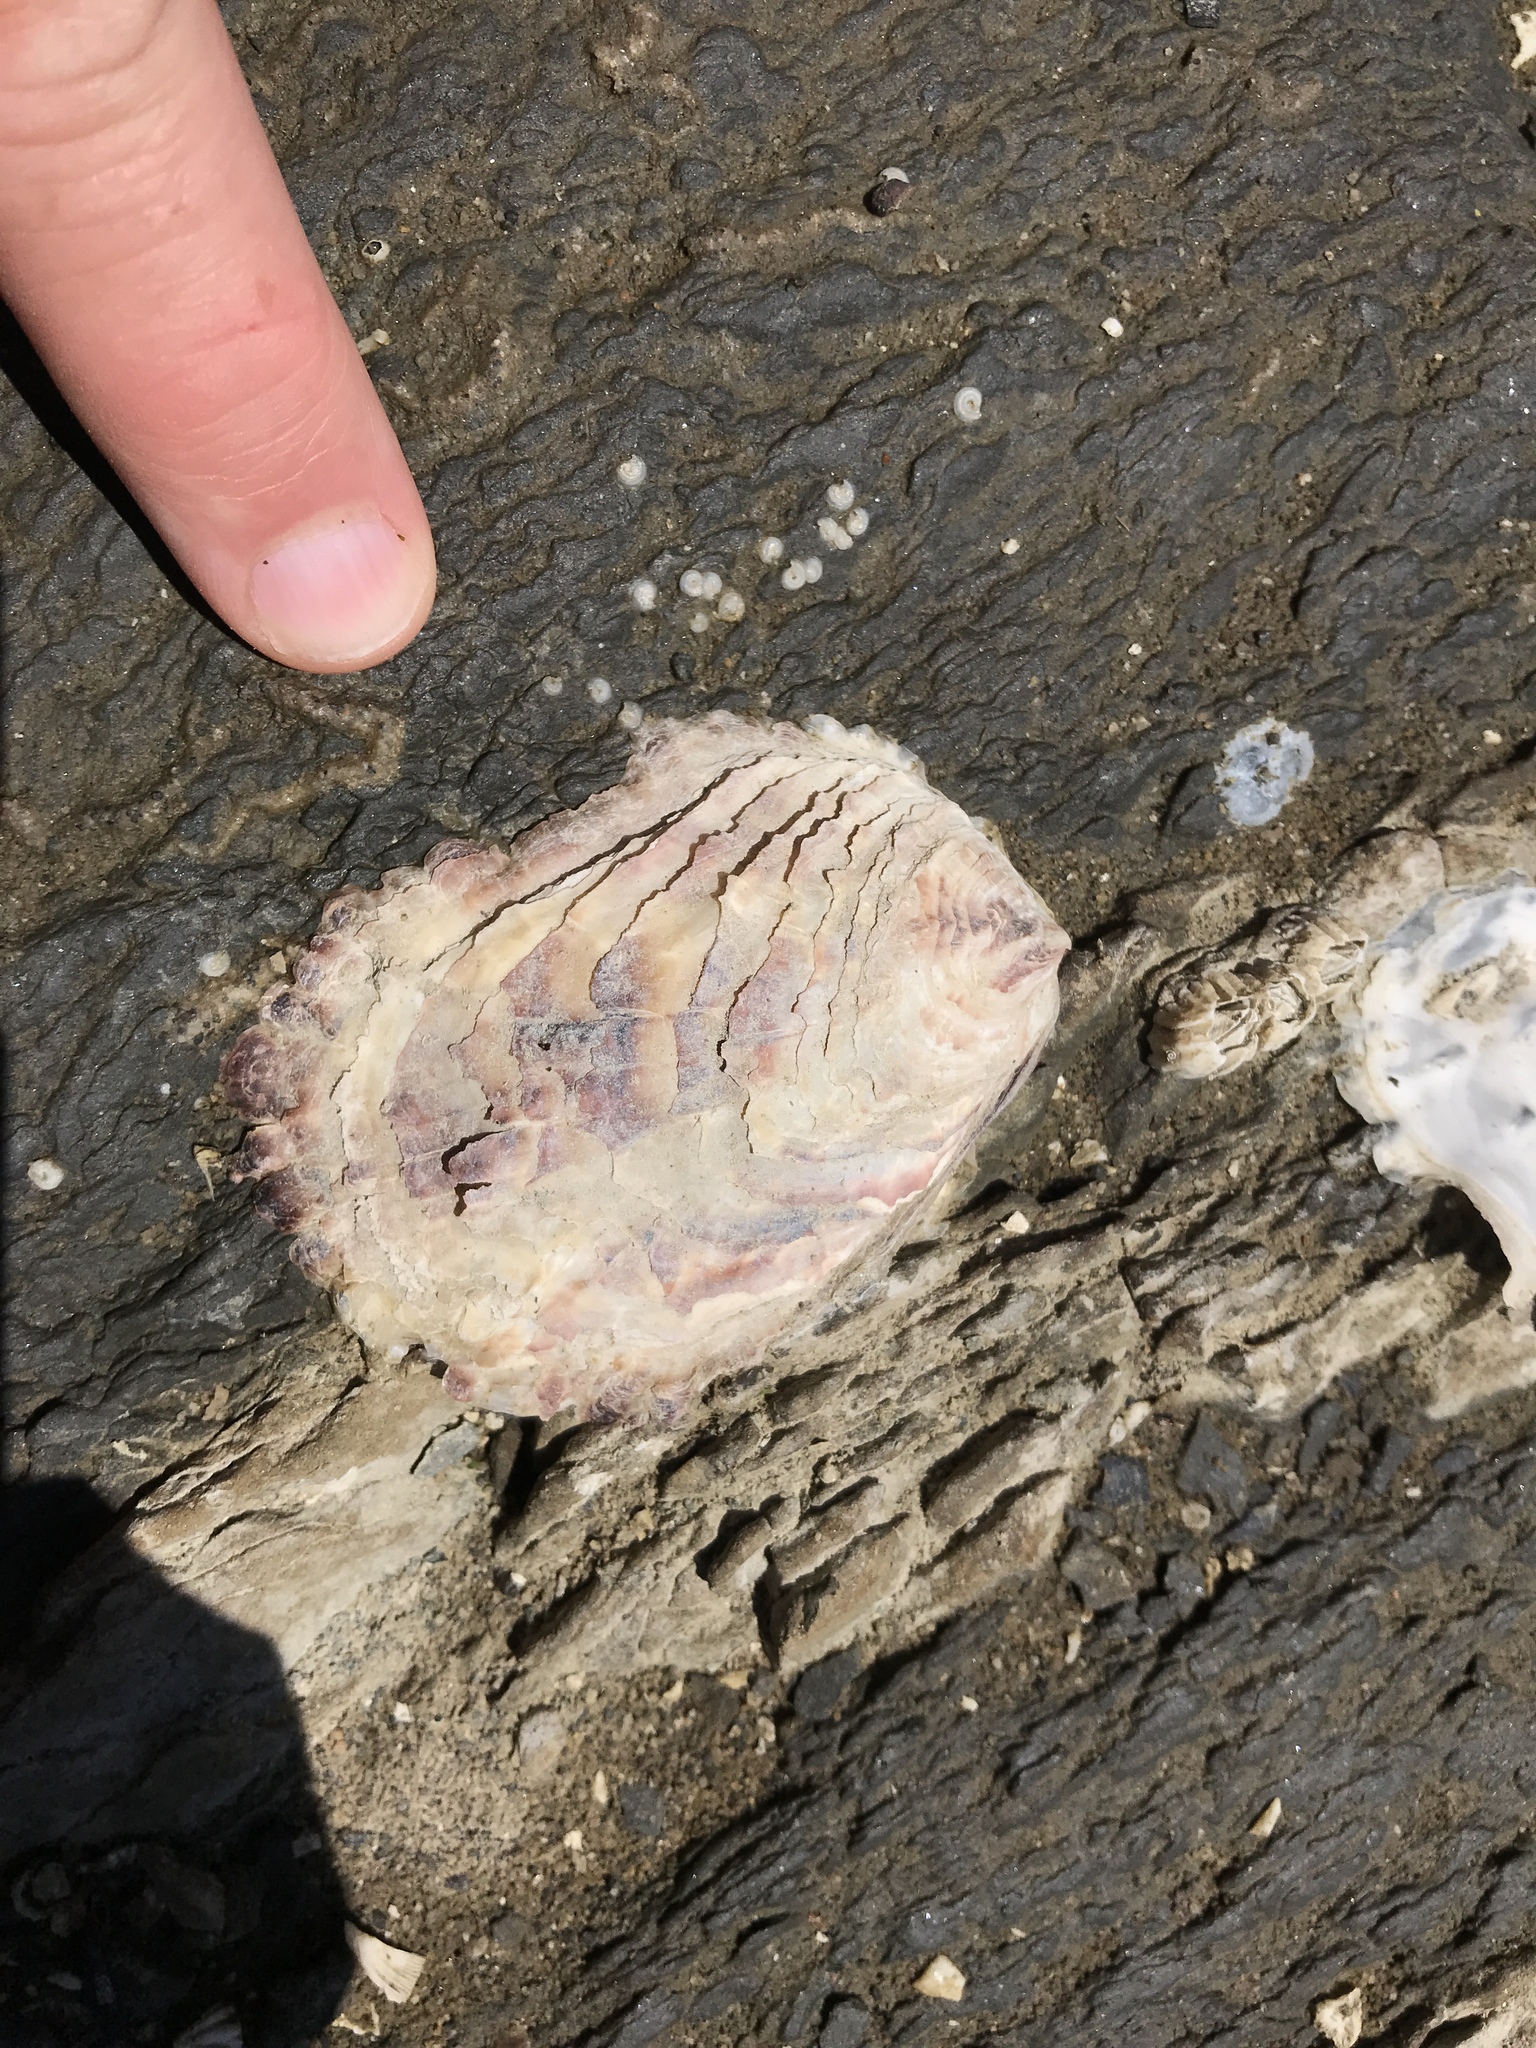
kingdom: Animalia
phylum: Mollusca
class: Bivalvia
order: Ostreida
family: Ostreidae
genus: Magallana
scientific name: Magallana gigas
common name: Pacific oyster
